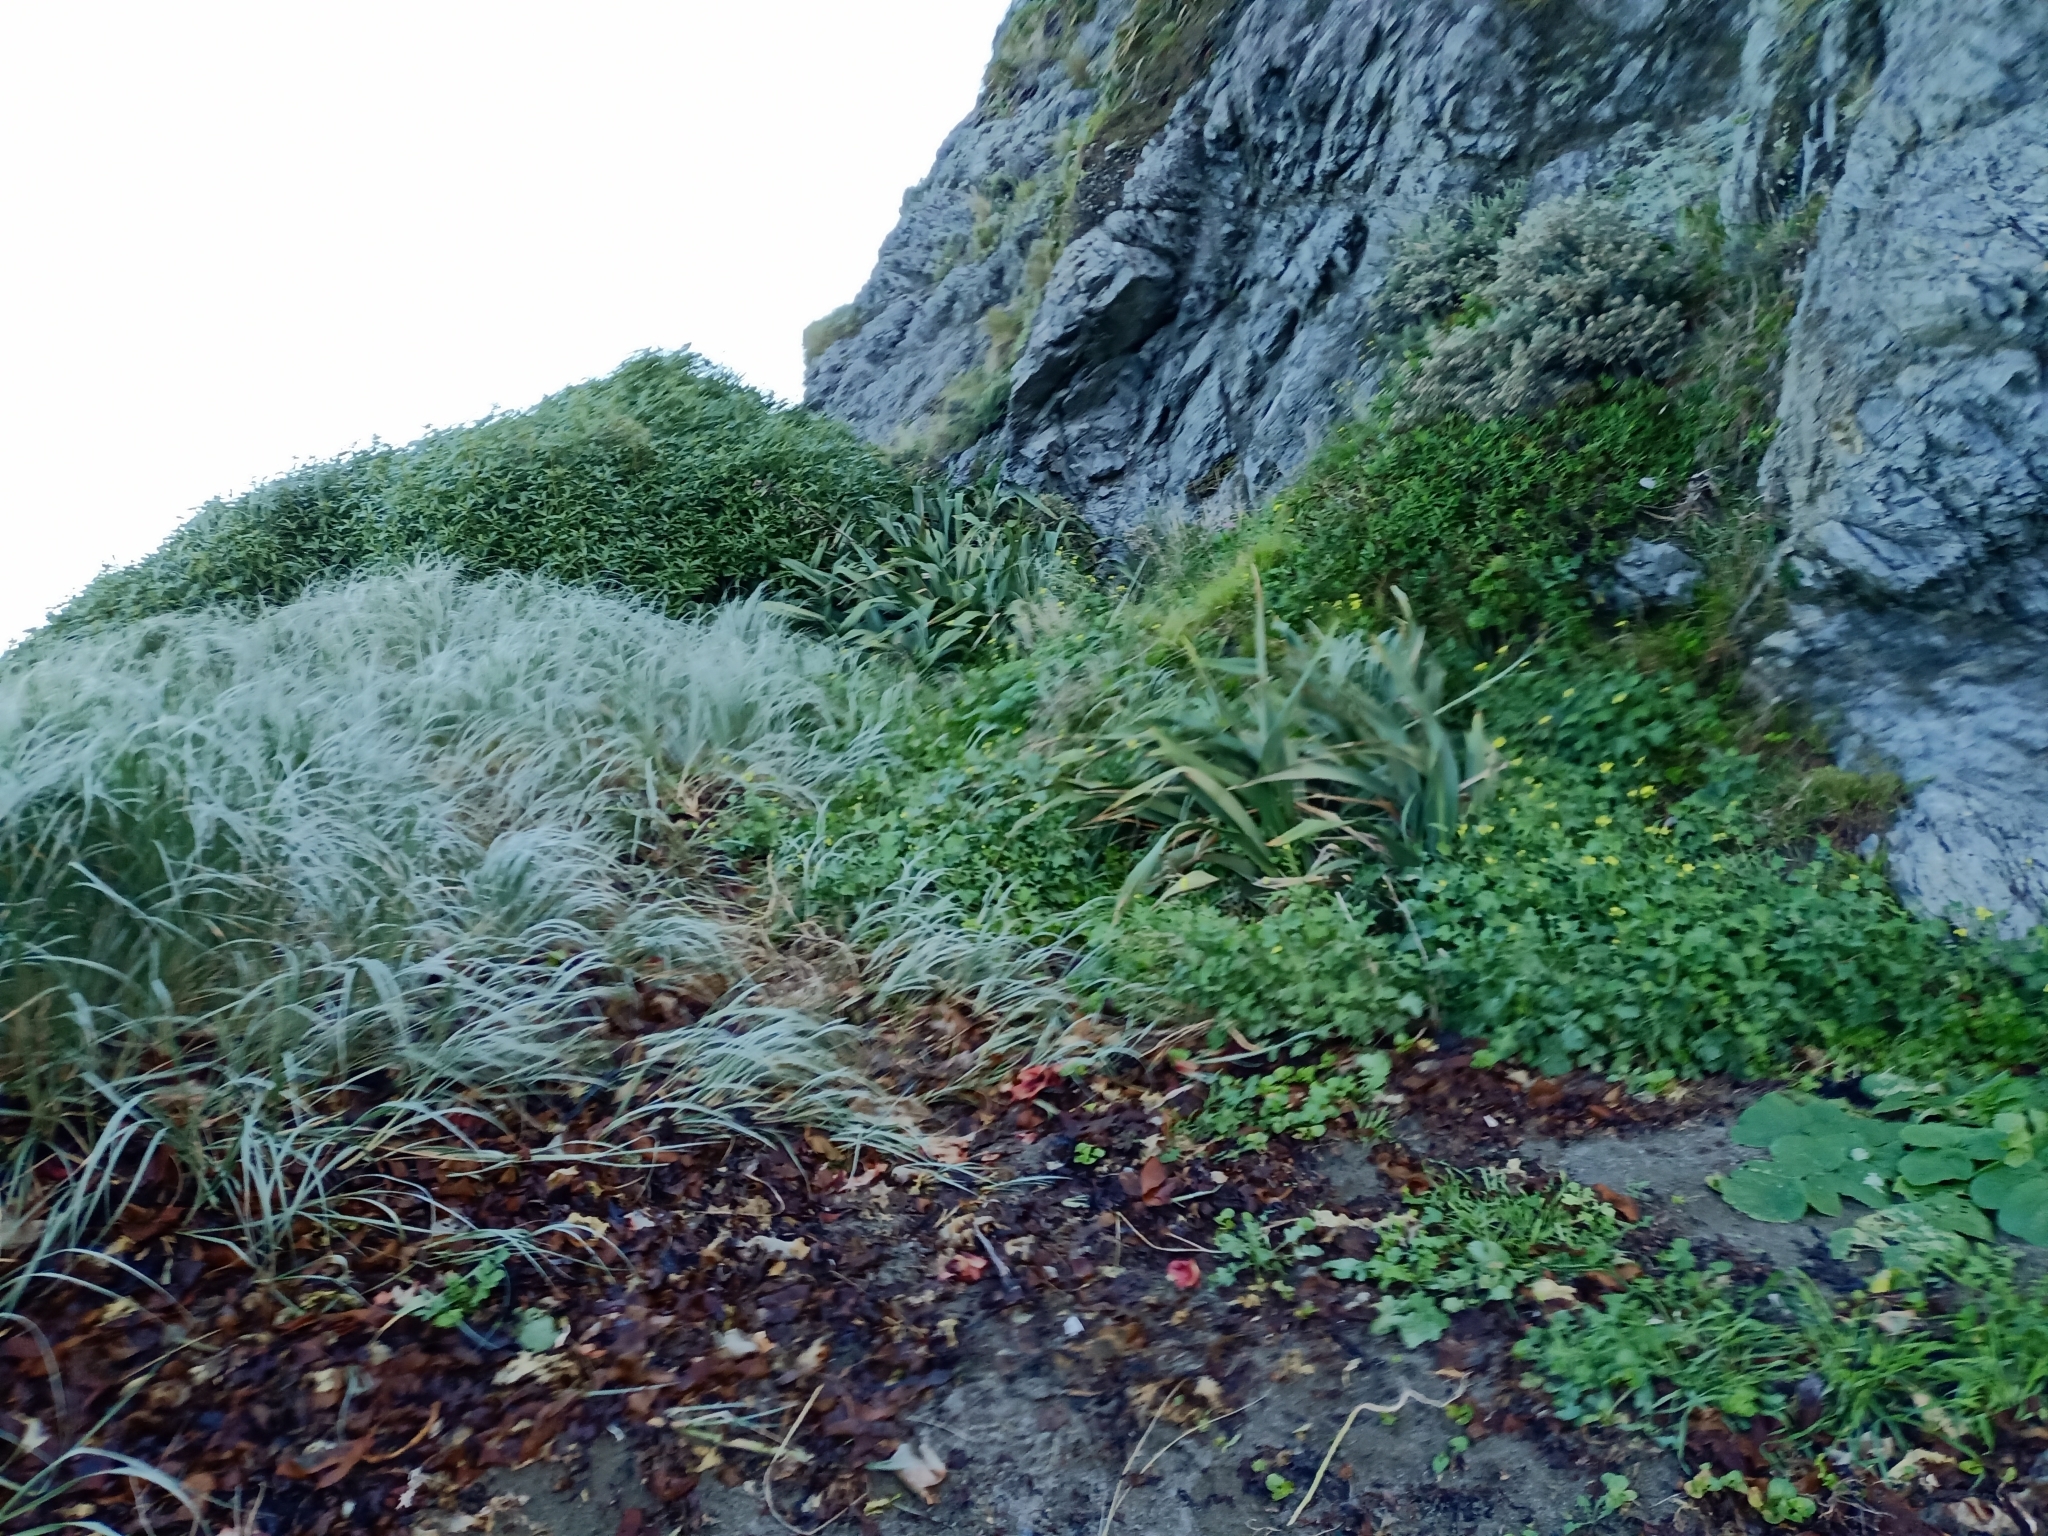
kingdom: Plantae
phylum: Tracheophyta
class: Magnoliopsida
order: Solanales
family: Convolvulaceae
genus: Calystegia
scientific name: Calystegia soldanella
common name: Sea bindweed
